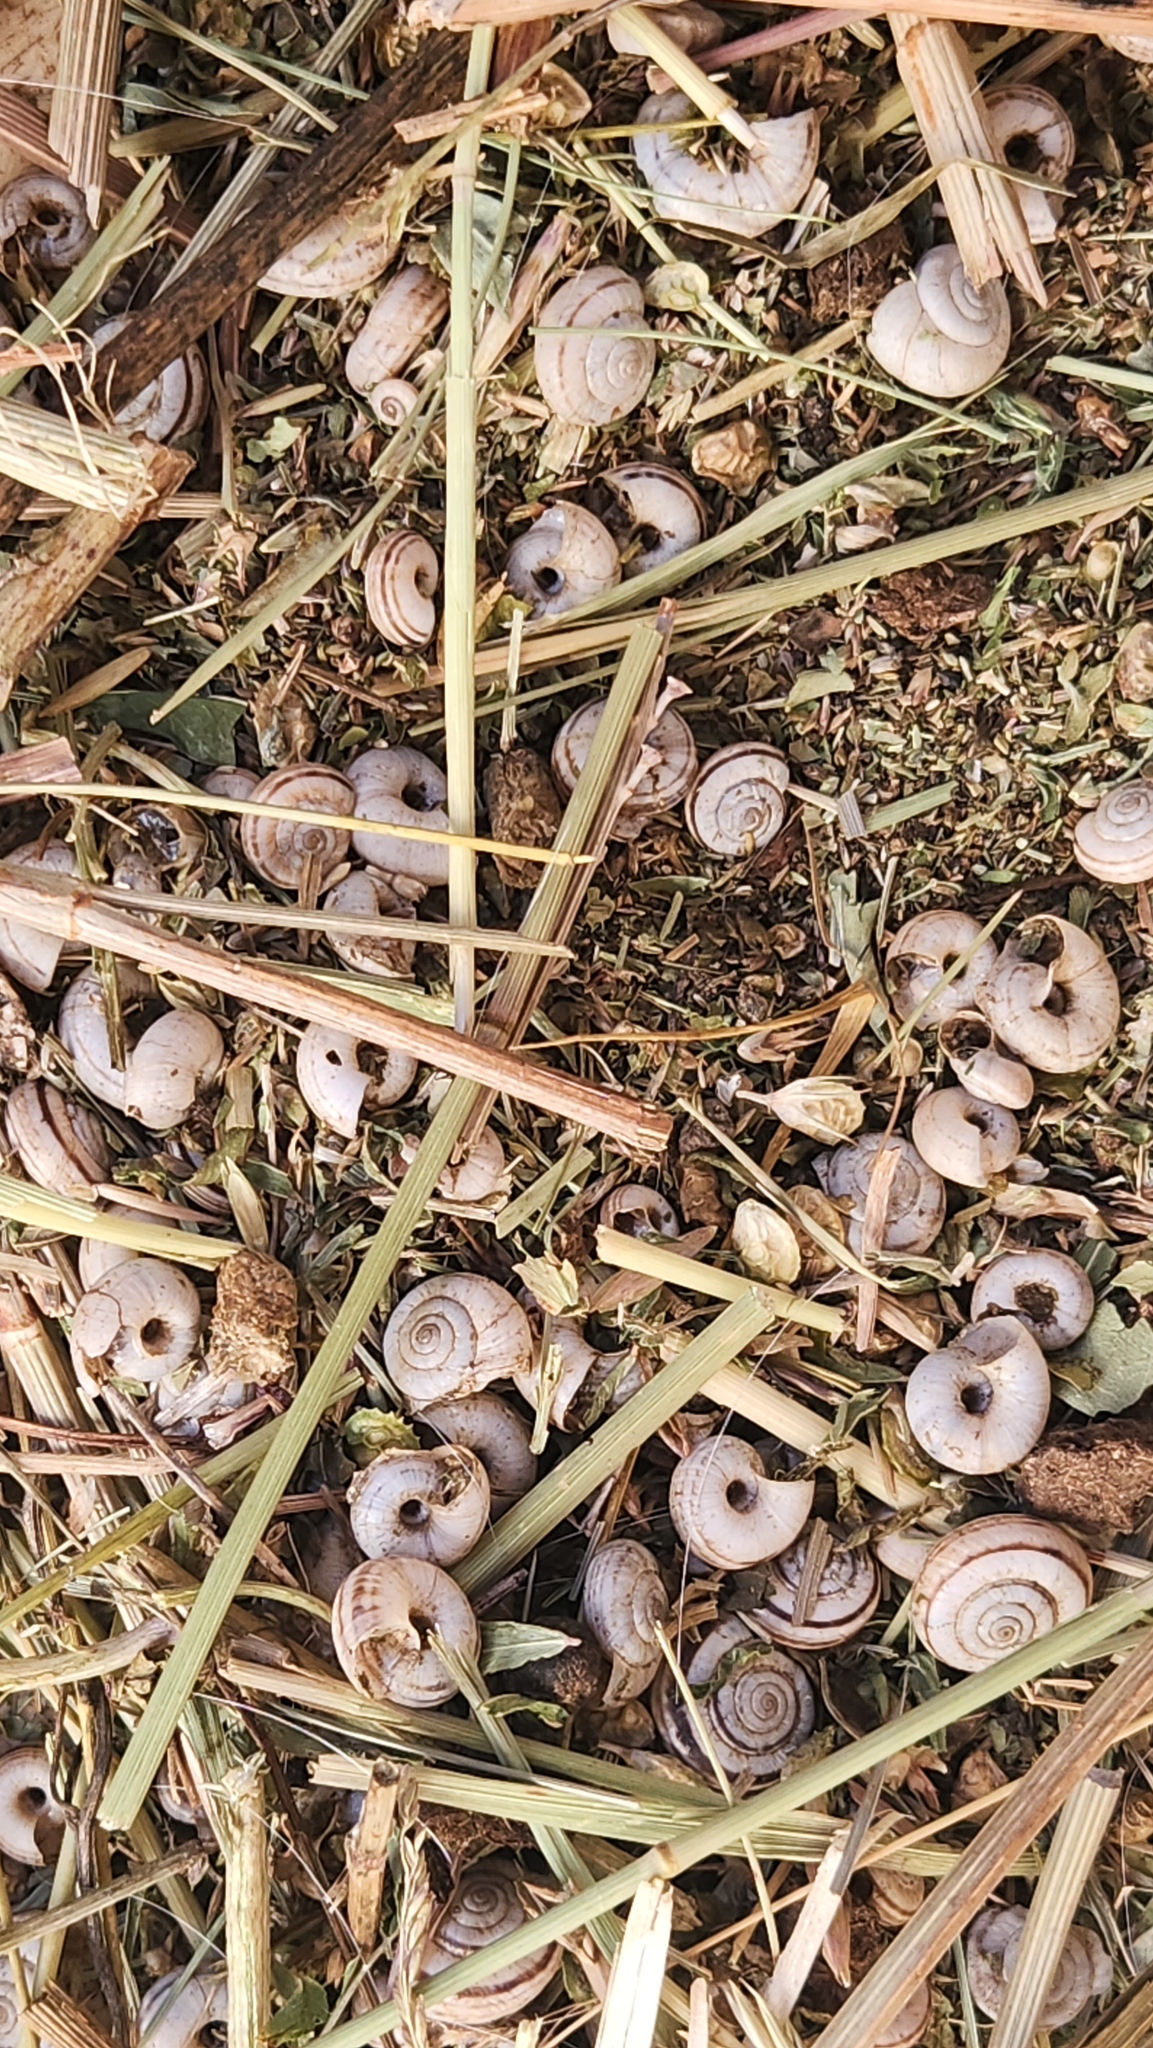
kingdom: Animalia
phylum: Mollusca
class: Gastropoda
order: Stylommatophora
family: Geomitridae
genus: Xerolenta
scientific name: Xerolenta obvia
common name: White heath snail
